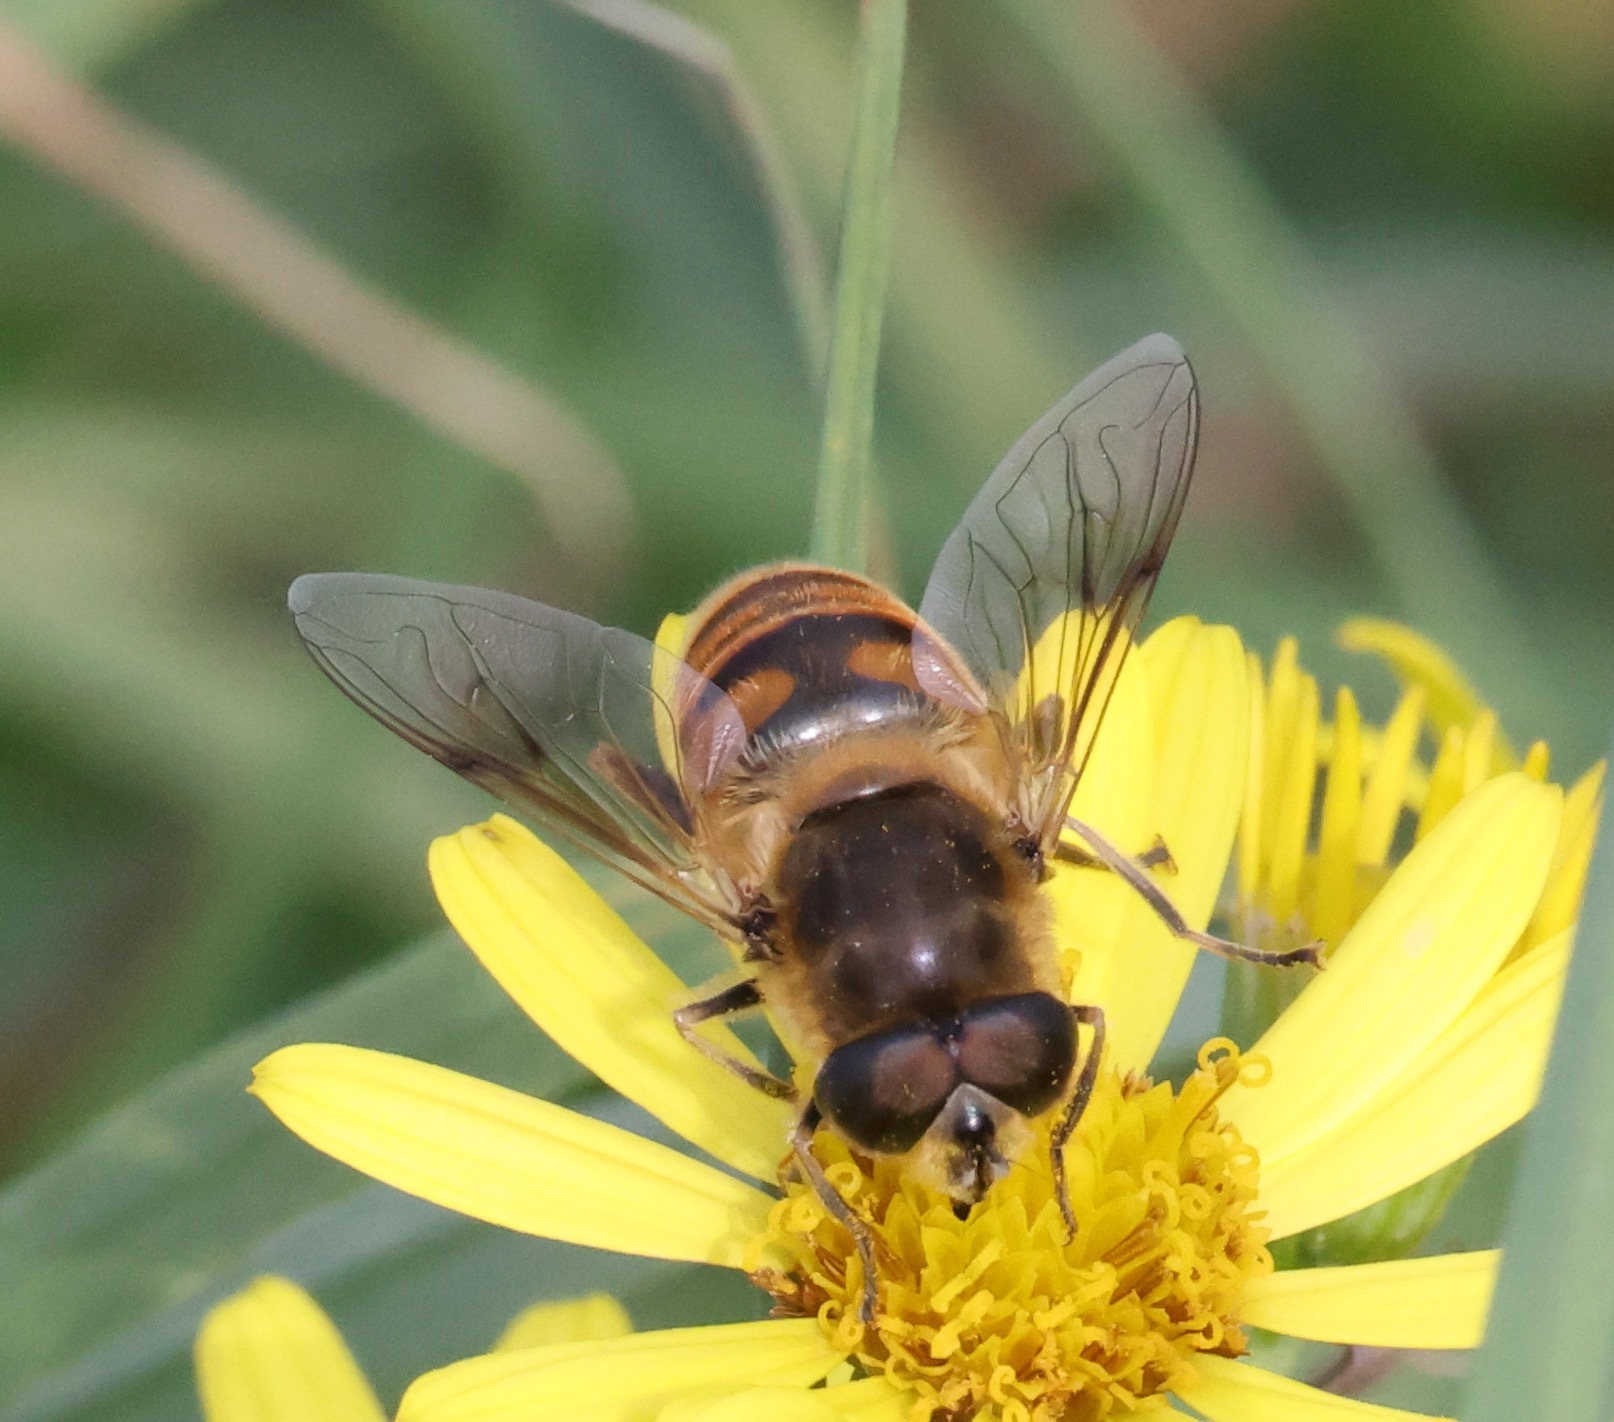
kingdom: Animalia
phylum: Arthropoda
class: Insecta
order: Diptera
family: Syrphidae
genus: Eristalis
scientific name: Eristalis tenax
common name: Drone fly
